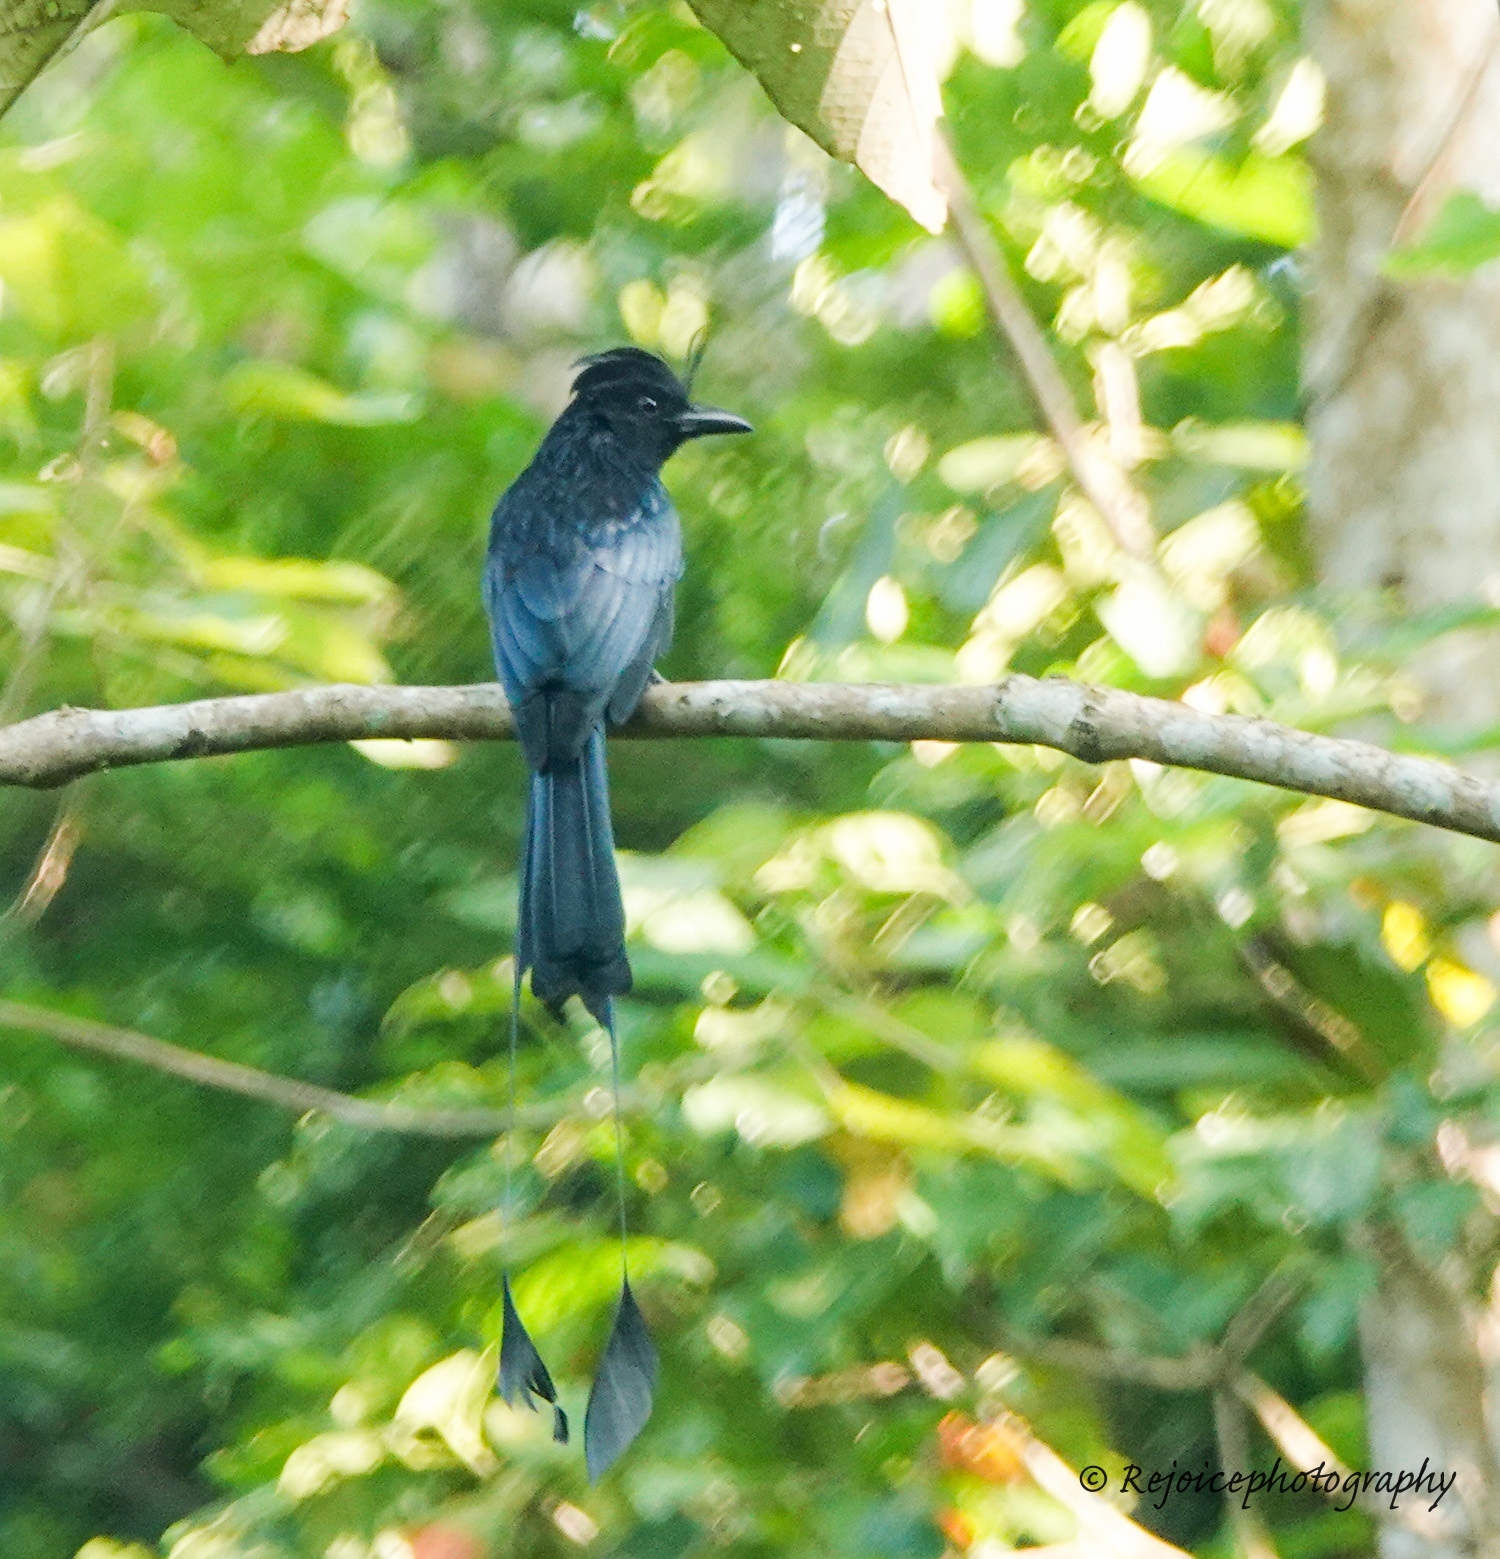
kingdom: Animalia
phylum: Chordata
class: Aves
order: Passeriformes
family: Dicruridae
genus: Dicrurus
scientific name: Dicrurus paradiseus
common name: Greater racket-tailed drongo
